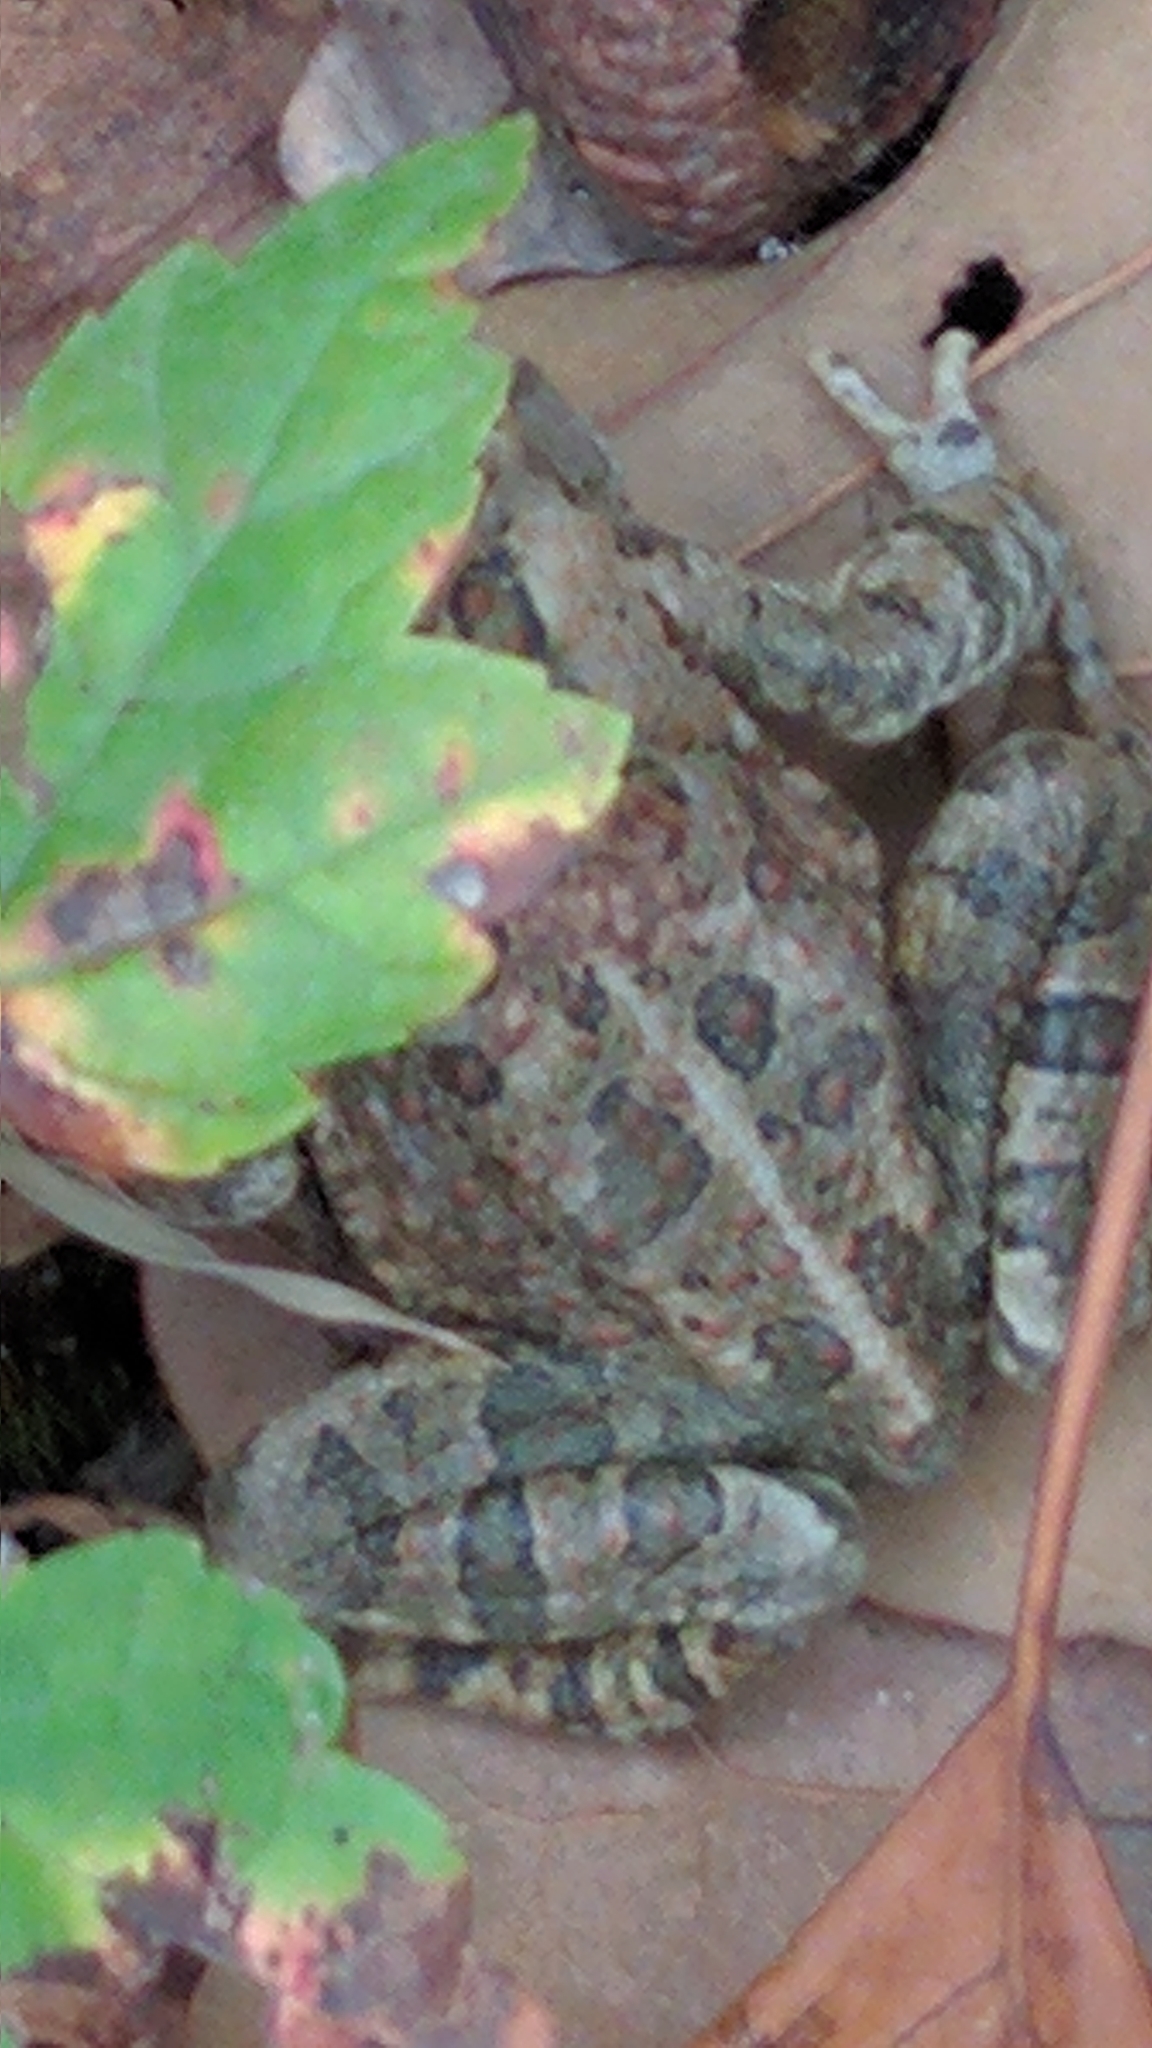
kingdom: Animalia
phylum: Chordata
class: Amphibia
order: Anura
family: Bufonidae
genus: Anaxyrus
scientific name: Anaxyrus fowleri
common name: Fowler's toad
